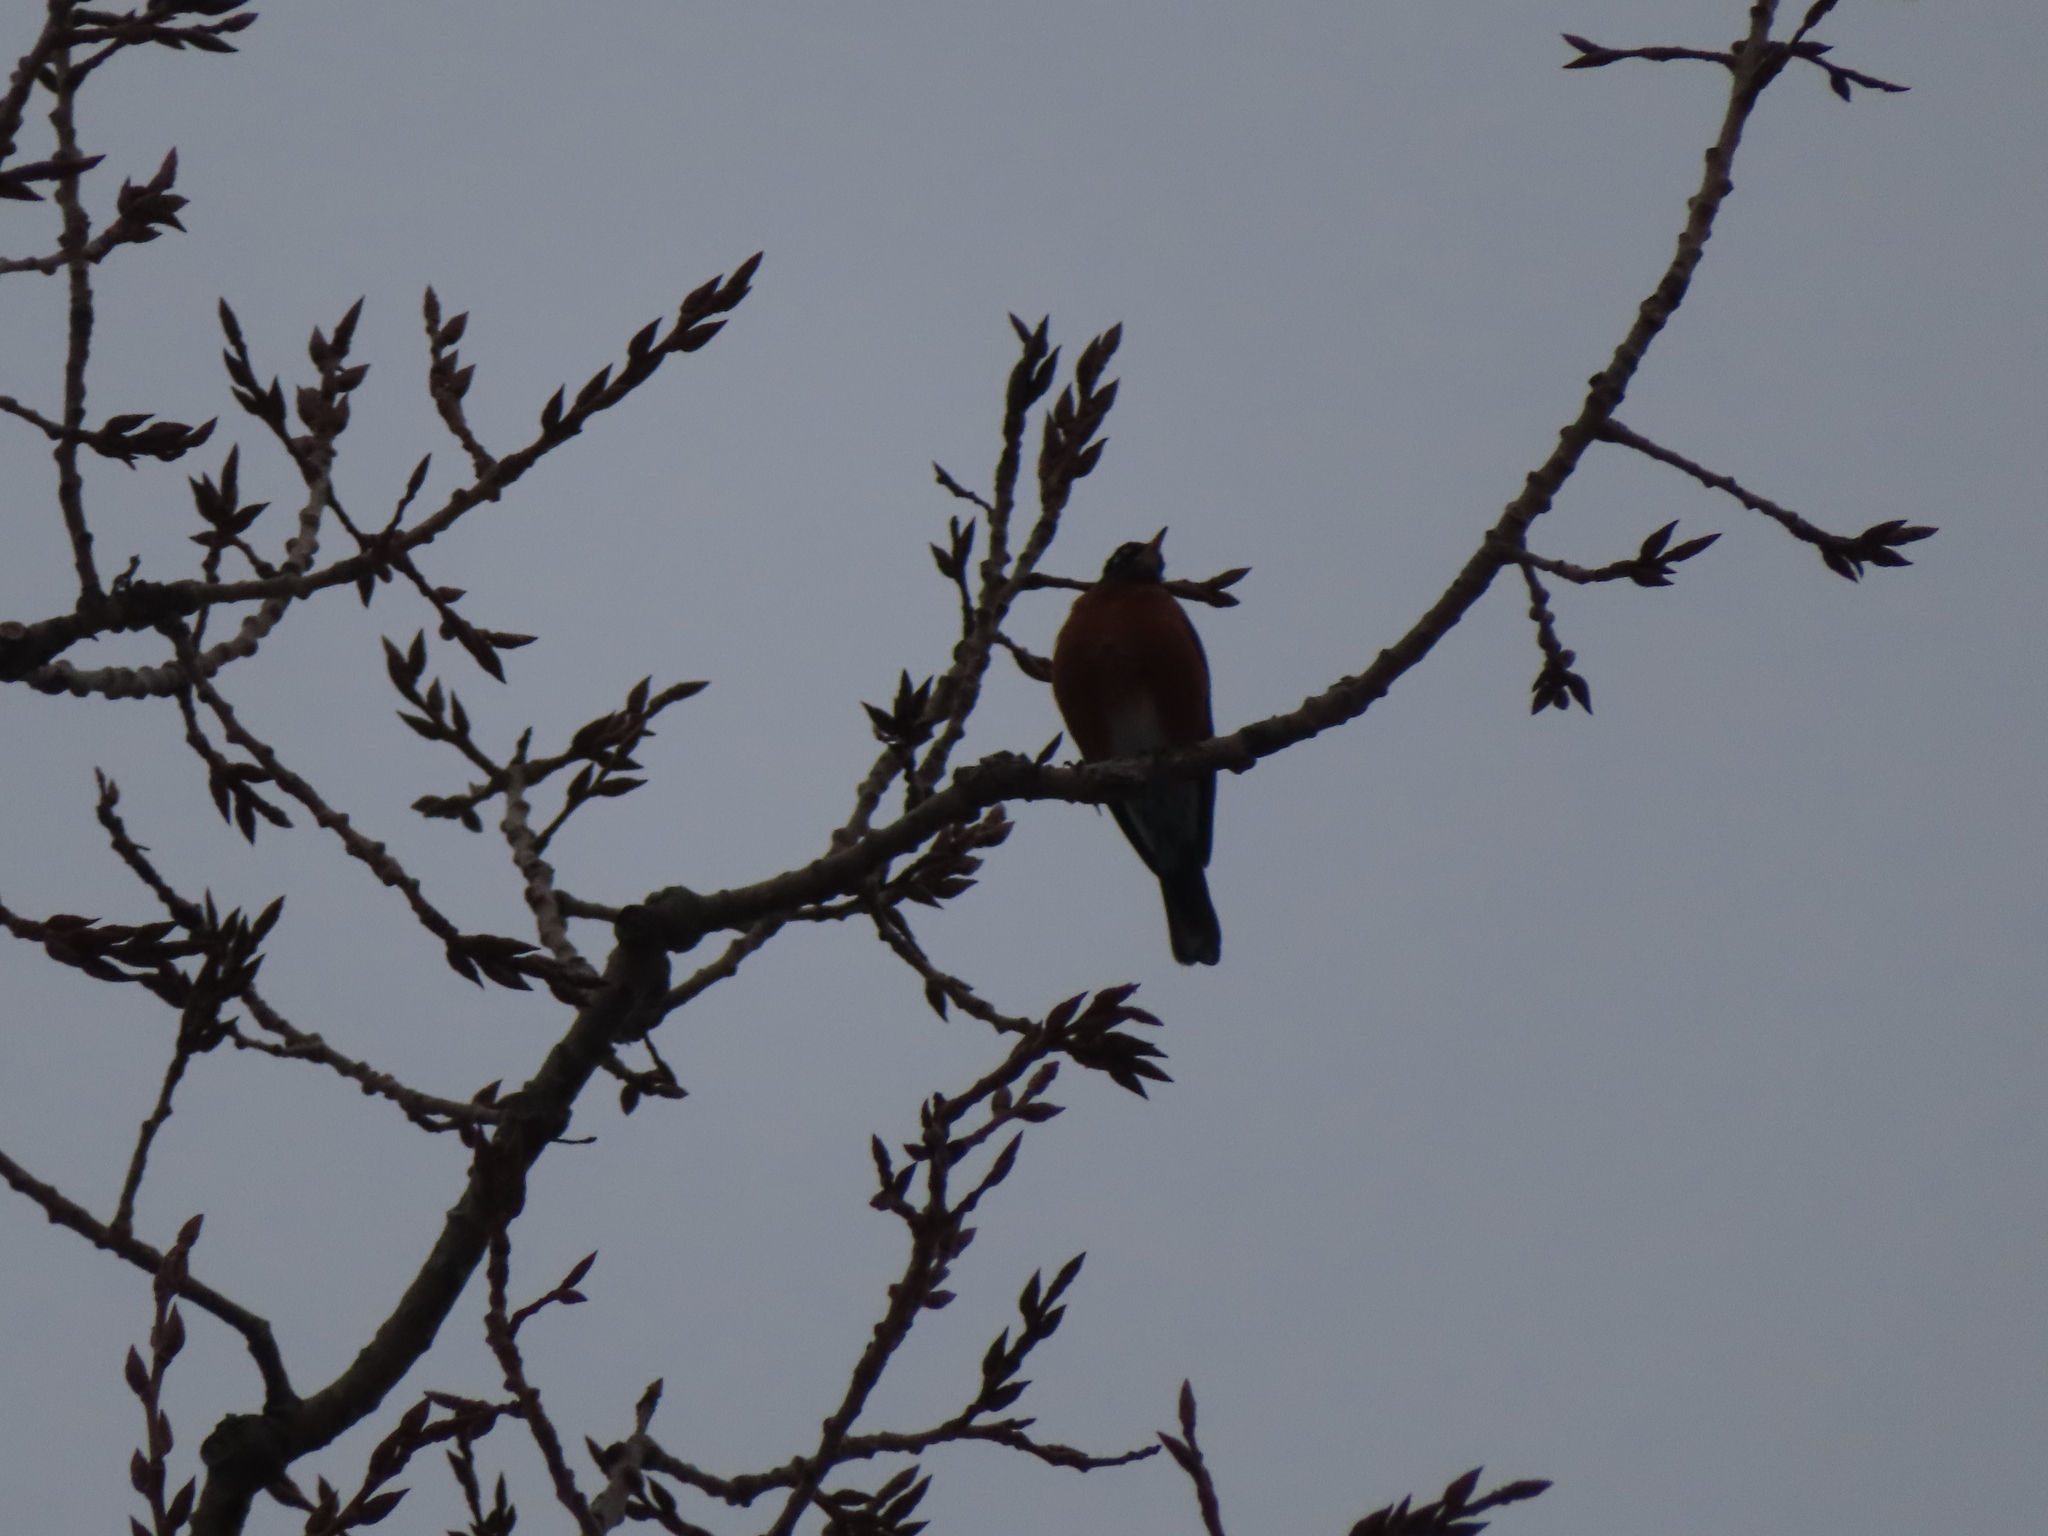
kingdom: Animalia
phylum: Chordata
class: Aves
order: Passeriformes
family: Turdidae
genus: Turdus
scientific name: Turdus migratorius
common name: American robin
